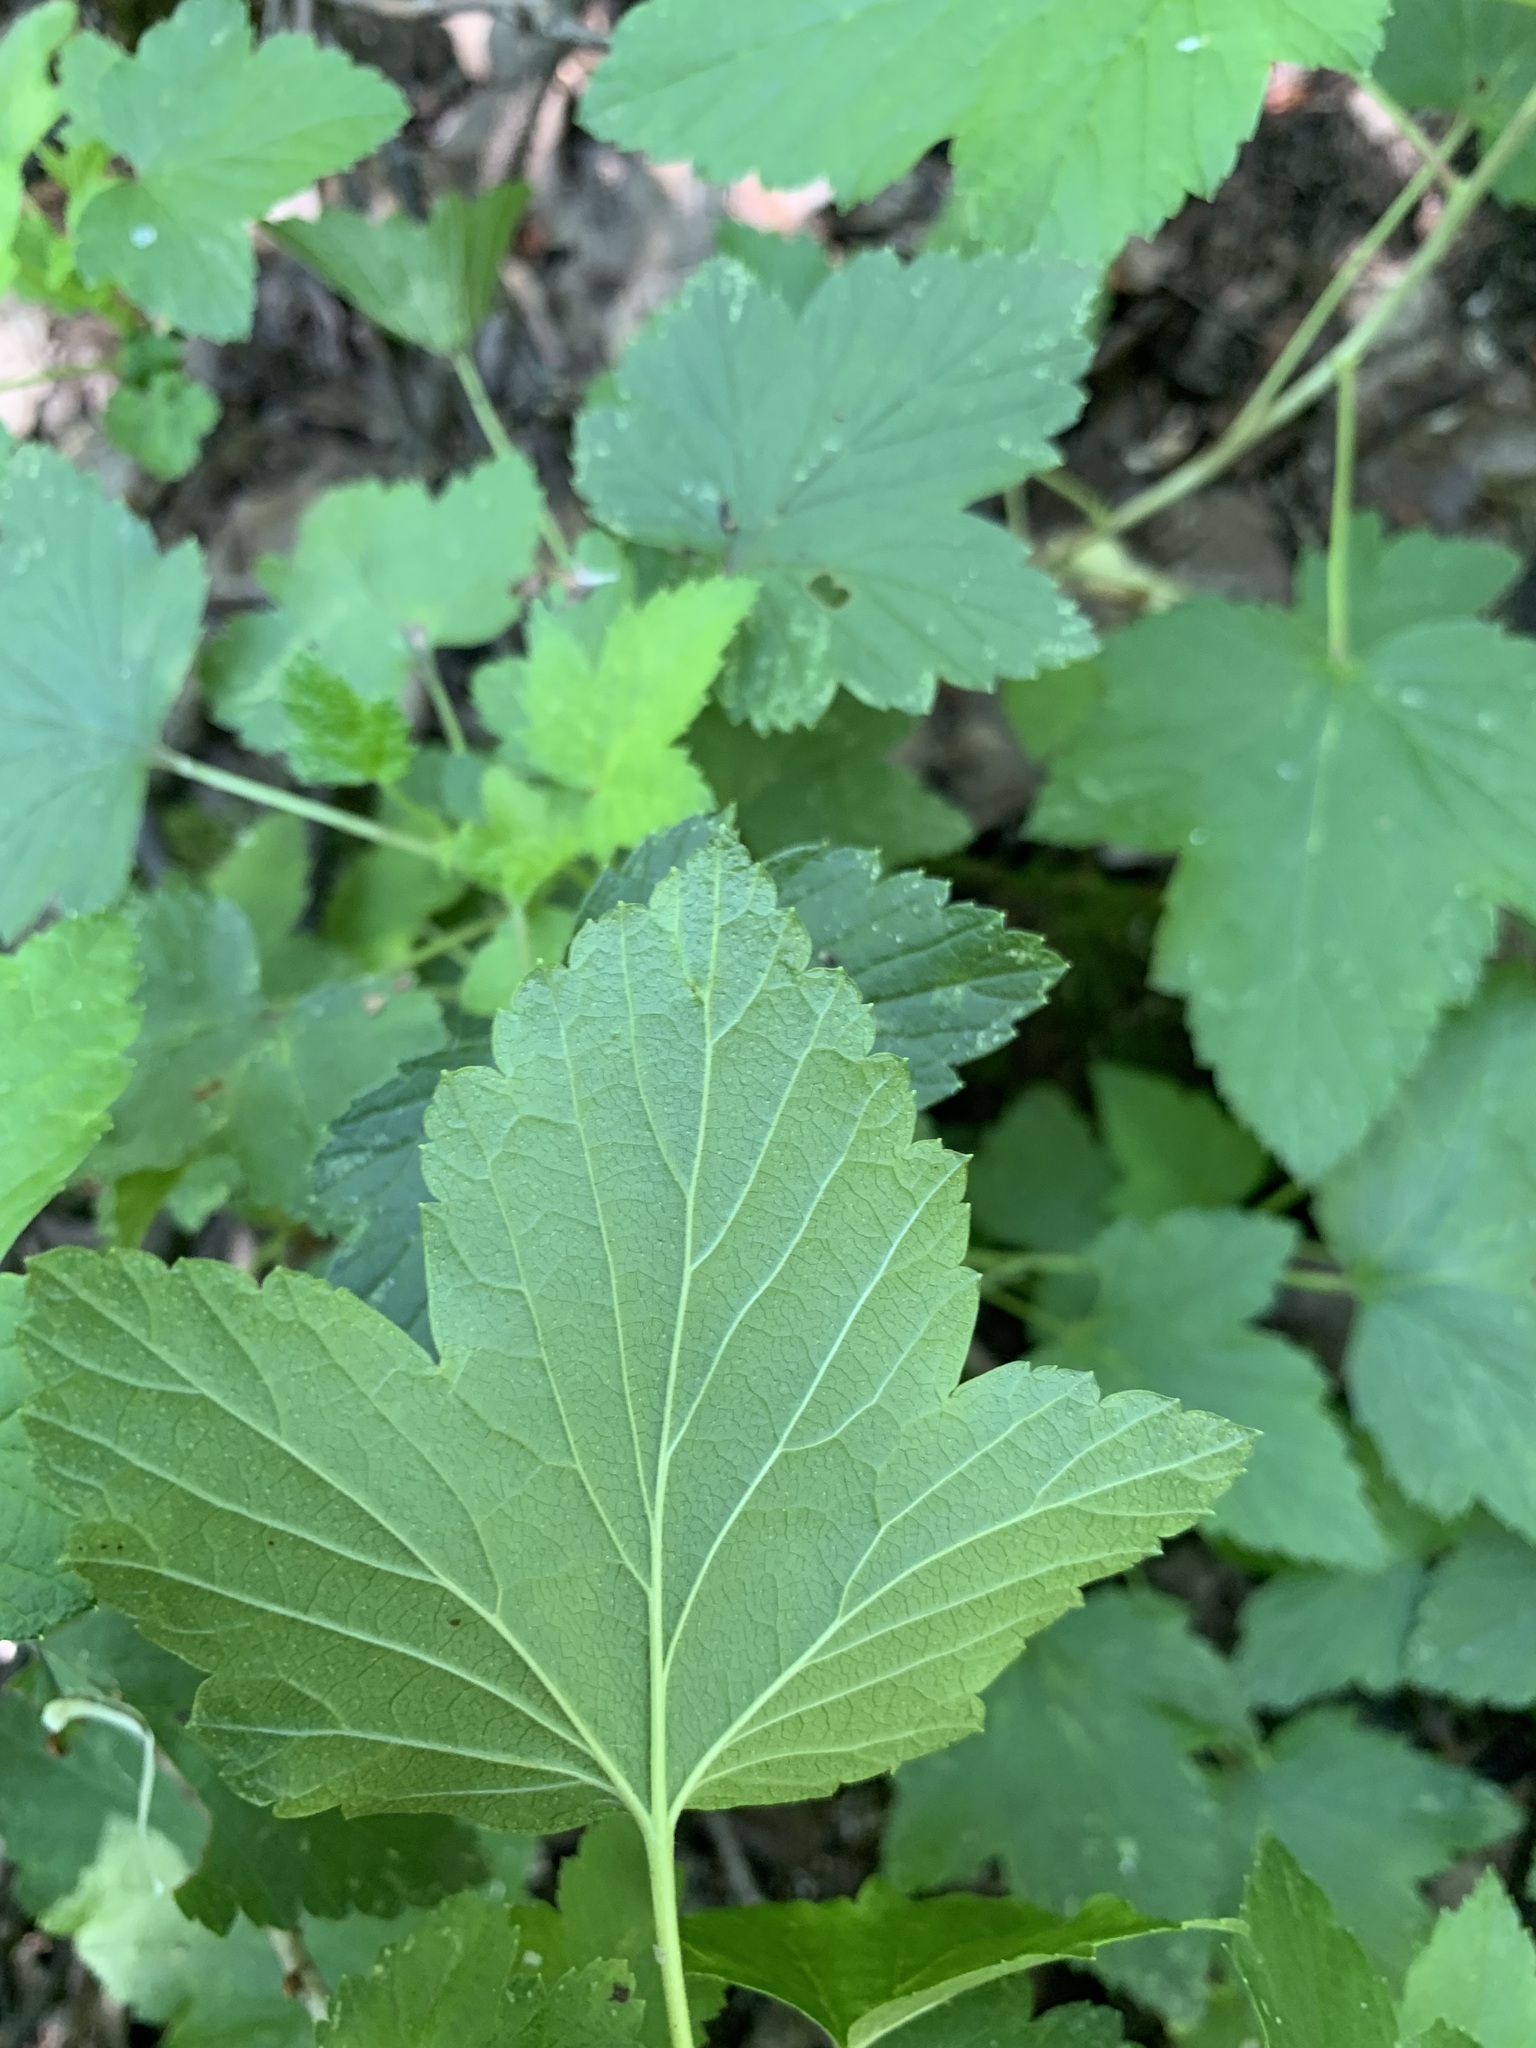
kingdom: Plantae
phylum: Tracheophyta
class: Magnoliopsida
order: Saxifragales
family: Grossulariaceae
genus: Ribes
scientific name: Ribes nigrum
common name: Black currant
